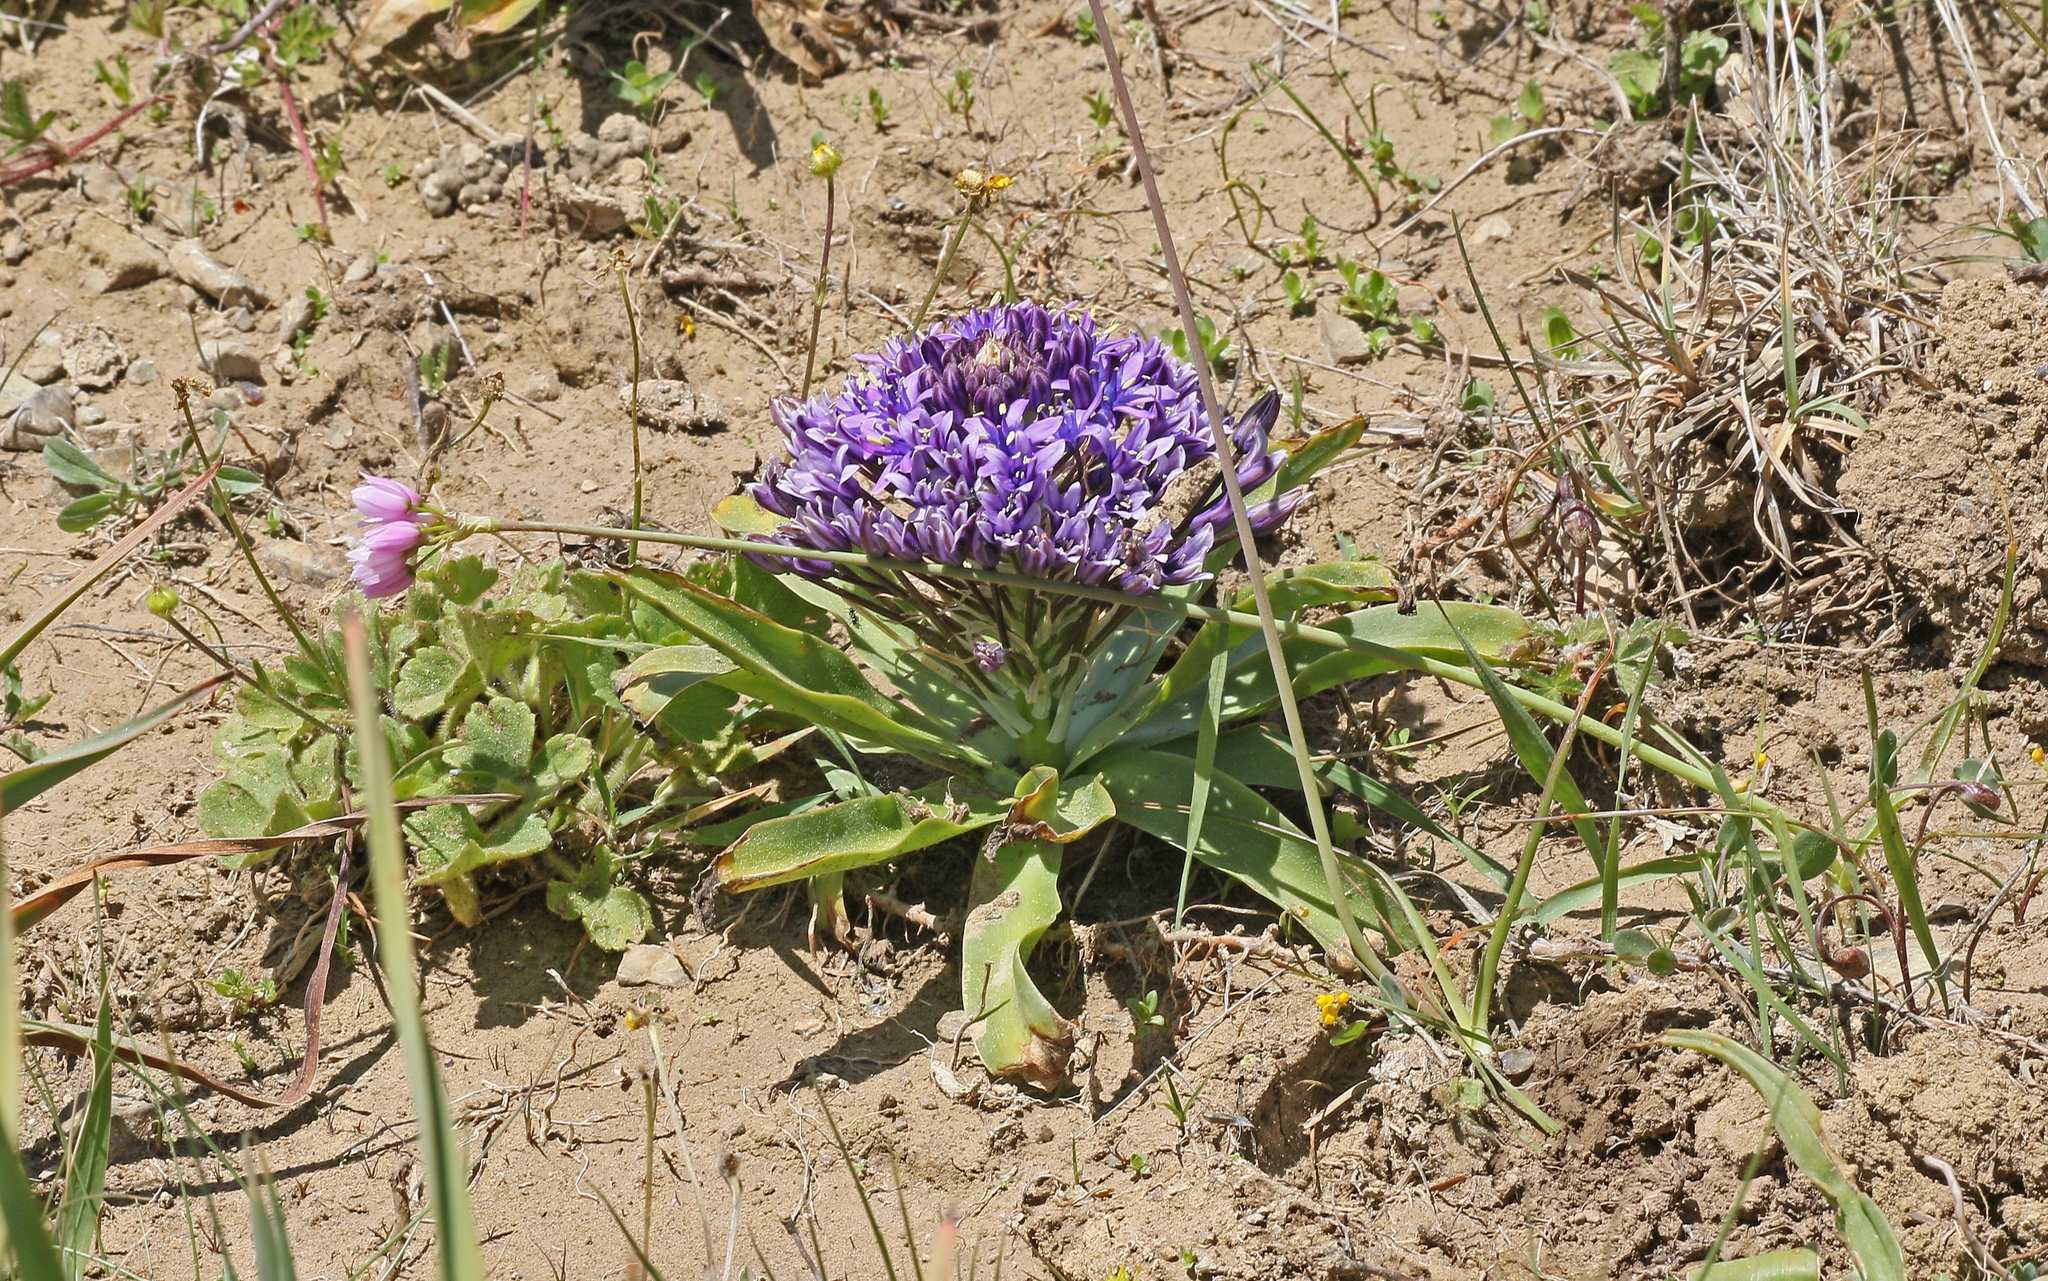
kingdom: Plantae
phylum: Tracheophyta
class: Liliopsida
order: Asparagales
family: Asparagaceae
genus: Scilla
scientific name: Scilla peruviana
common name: Portuguese squill
